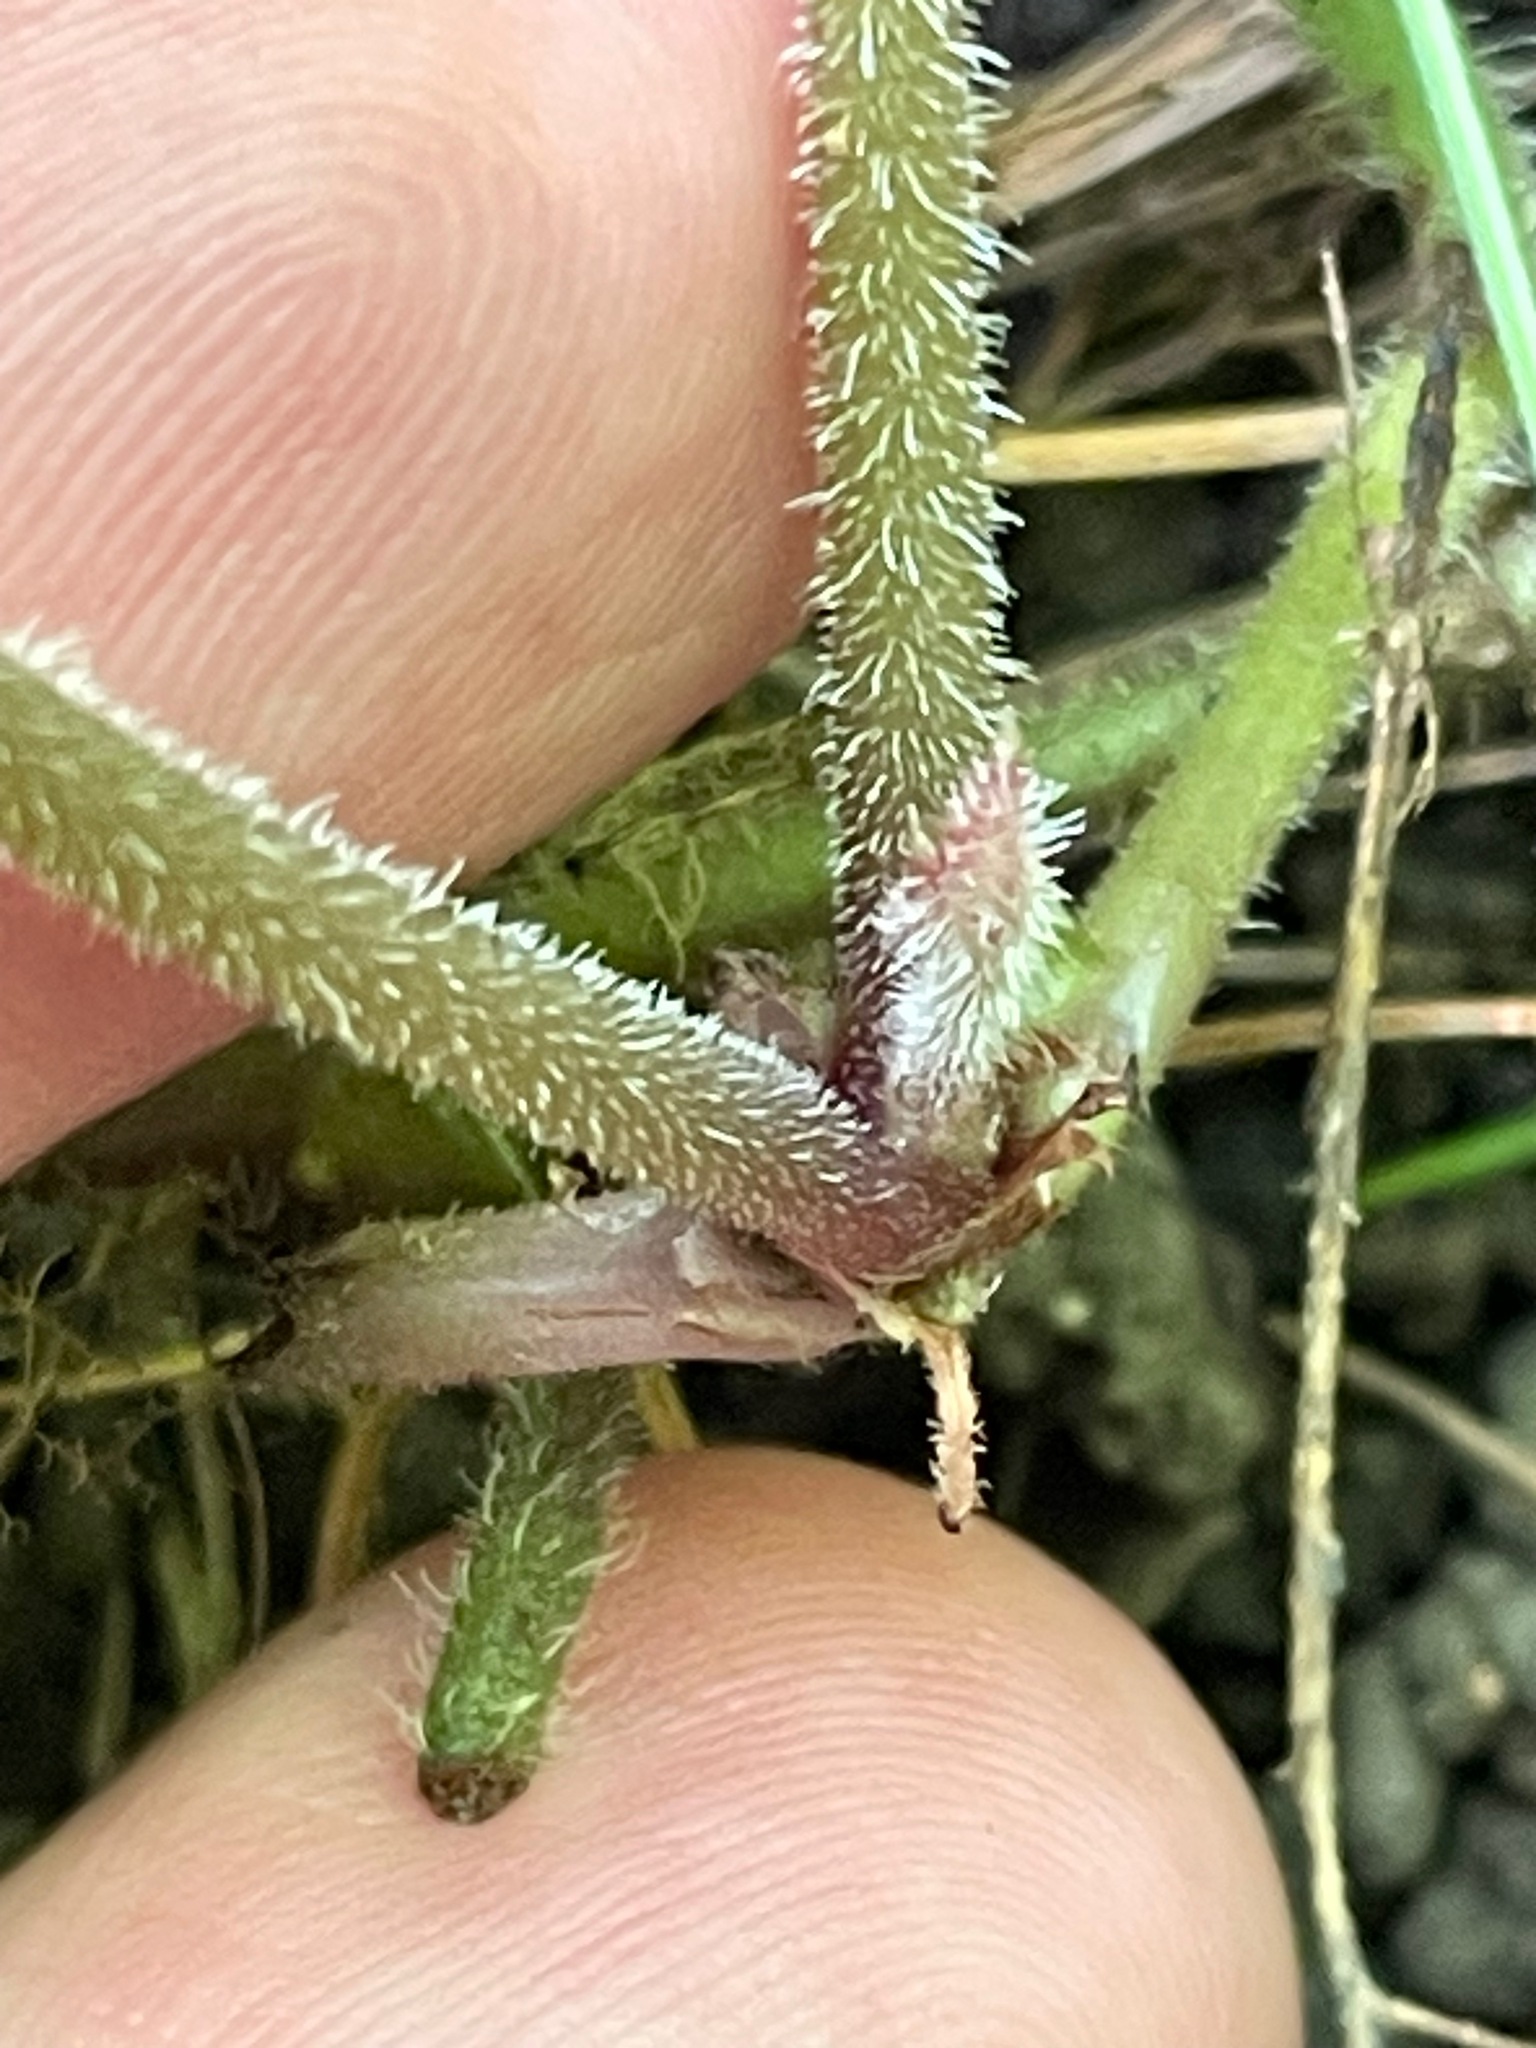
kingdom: Plantae
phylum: Tracheophyta
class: Magnoliopsida
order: Saxifragales
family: Saxifragaceae
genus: Tiarella
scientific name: Tiarella stolonifera
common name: Stoloniferous foamflower
